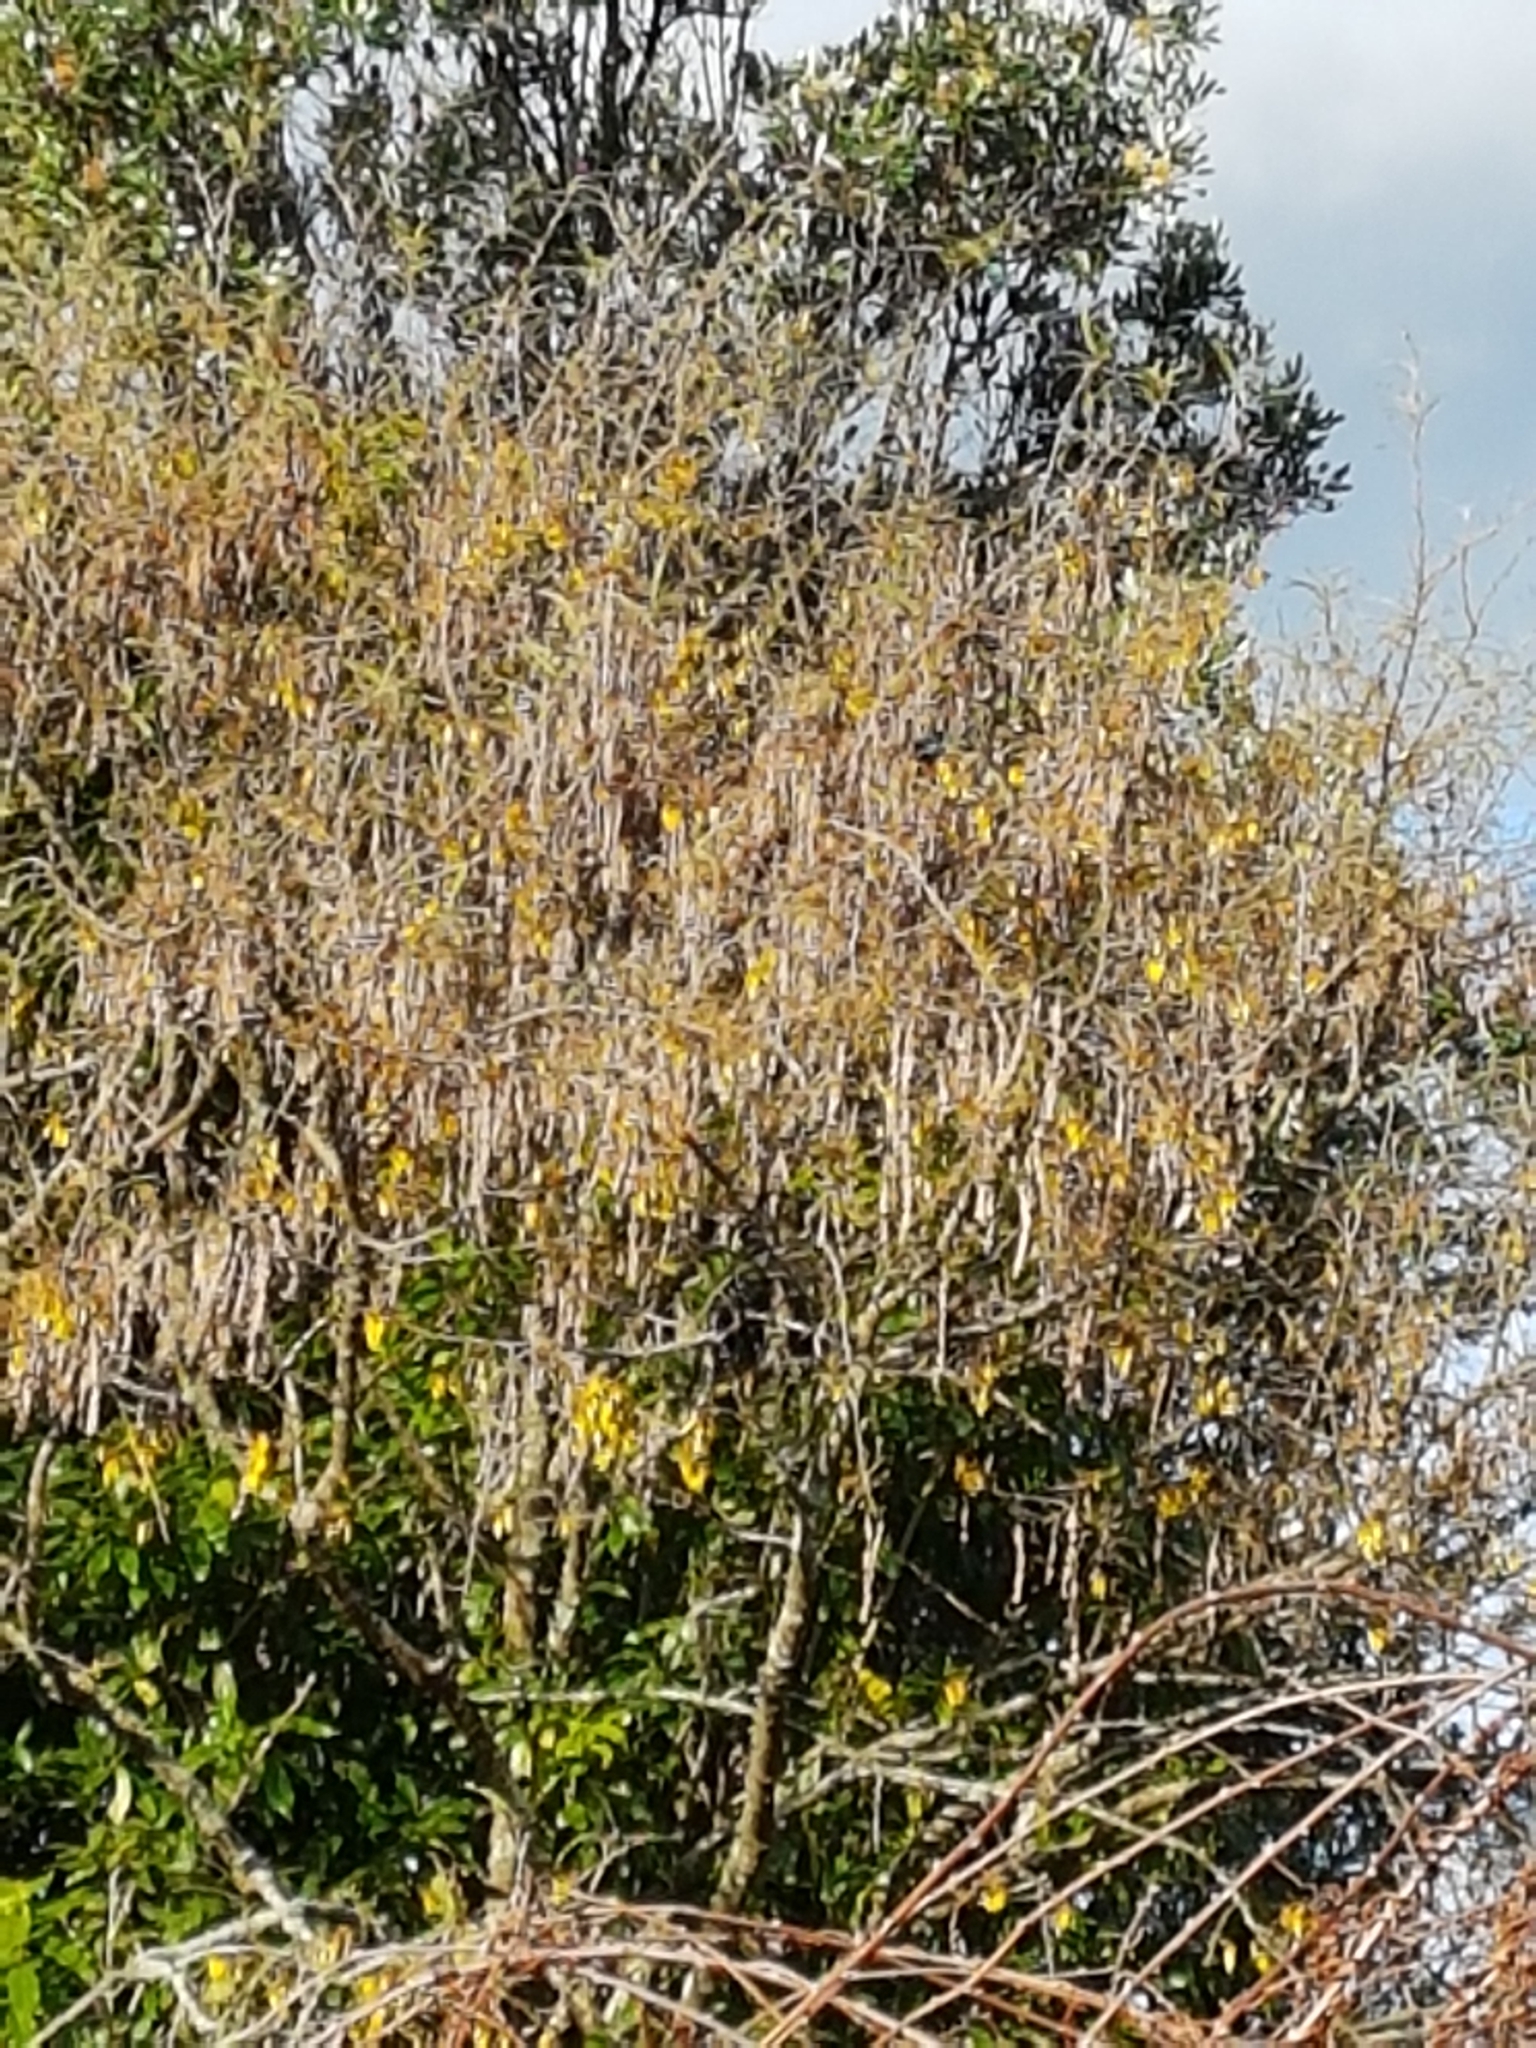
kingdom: Animalia
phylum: Chordata
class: Aves
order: Passeriformes
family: Meliphagidae
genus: Prosthemadera
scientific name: Prosthemadera novaeseelandiae
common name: Tui
